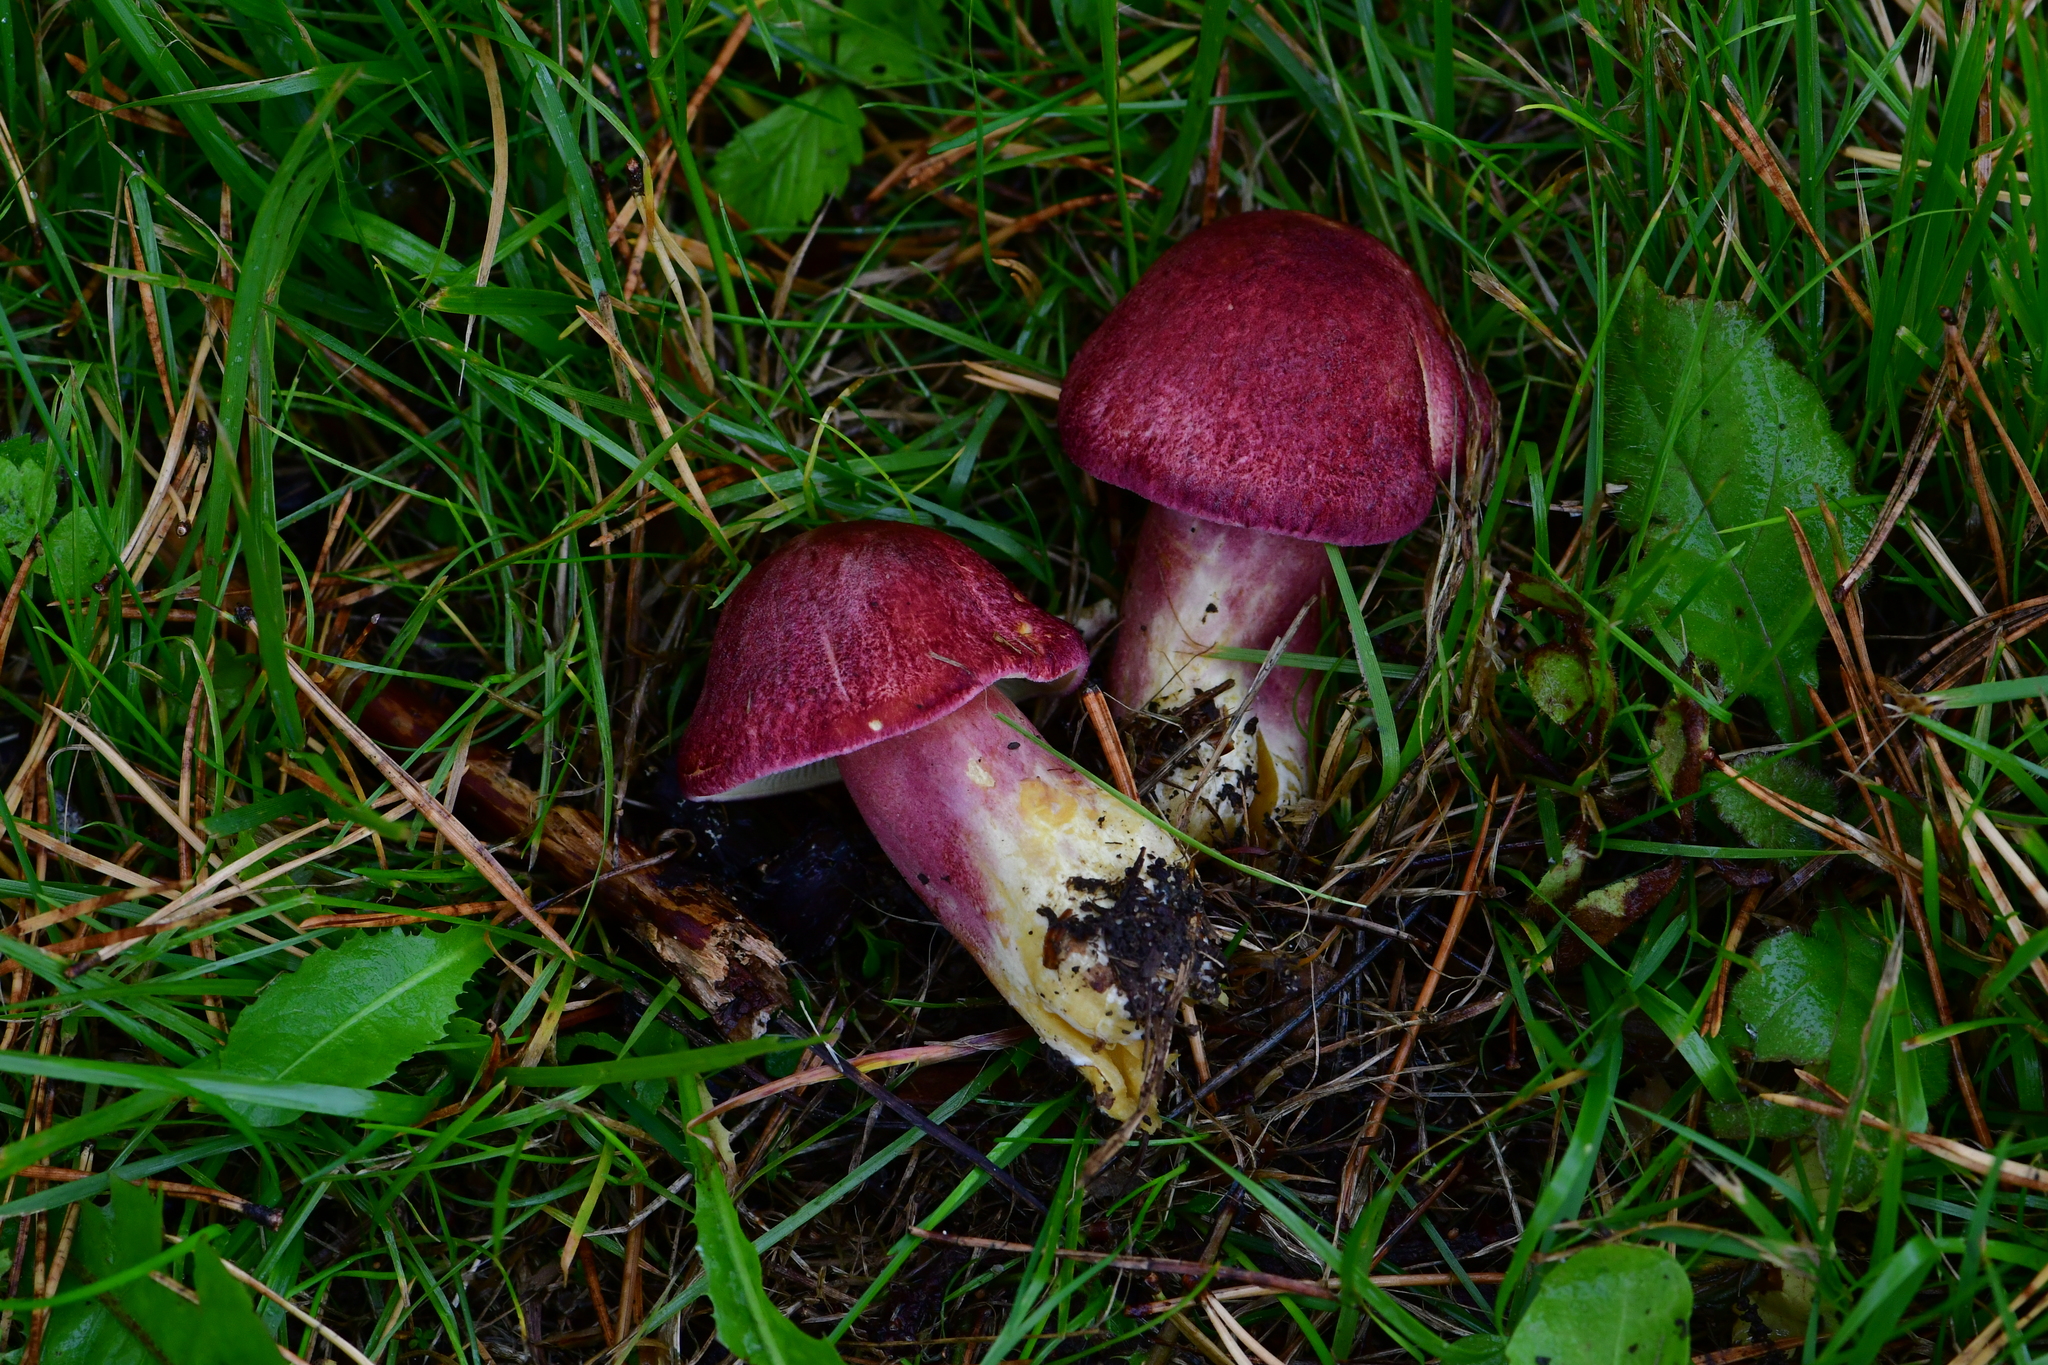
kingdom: Fungi
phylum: Basidiomycota
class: Agaricomycetes
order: Agaricales
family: Tricholomataceae
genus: Tricholomopsis
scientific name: Tricholomopsis rutilans
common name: Plums and custard
